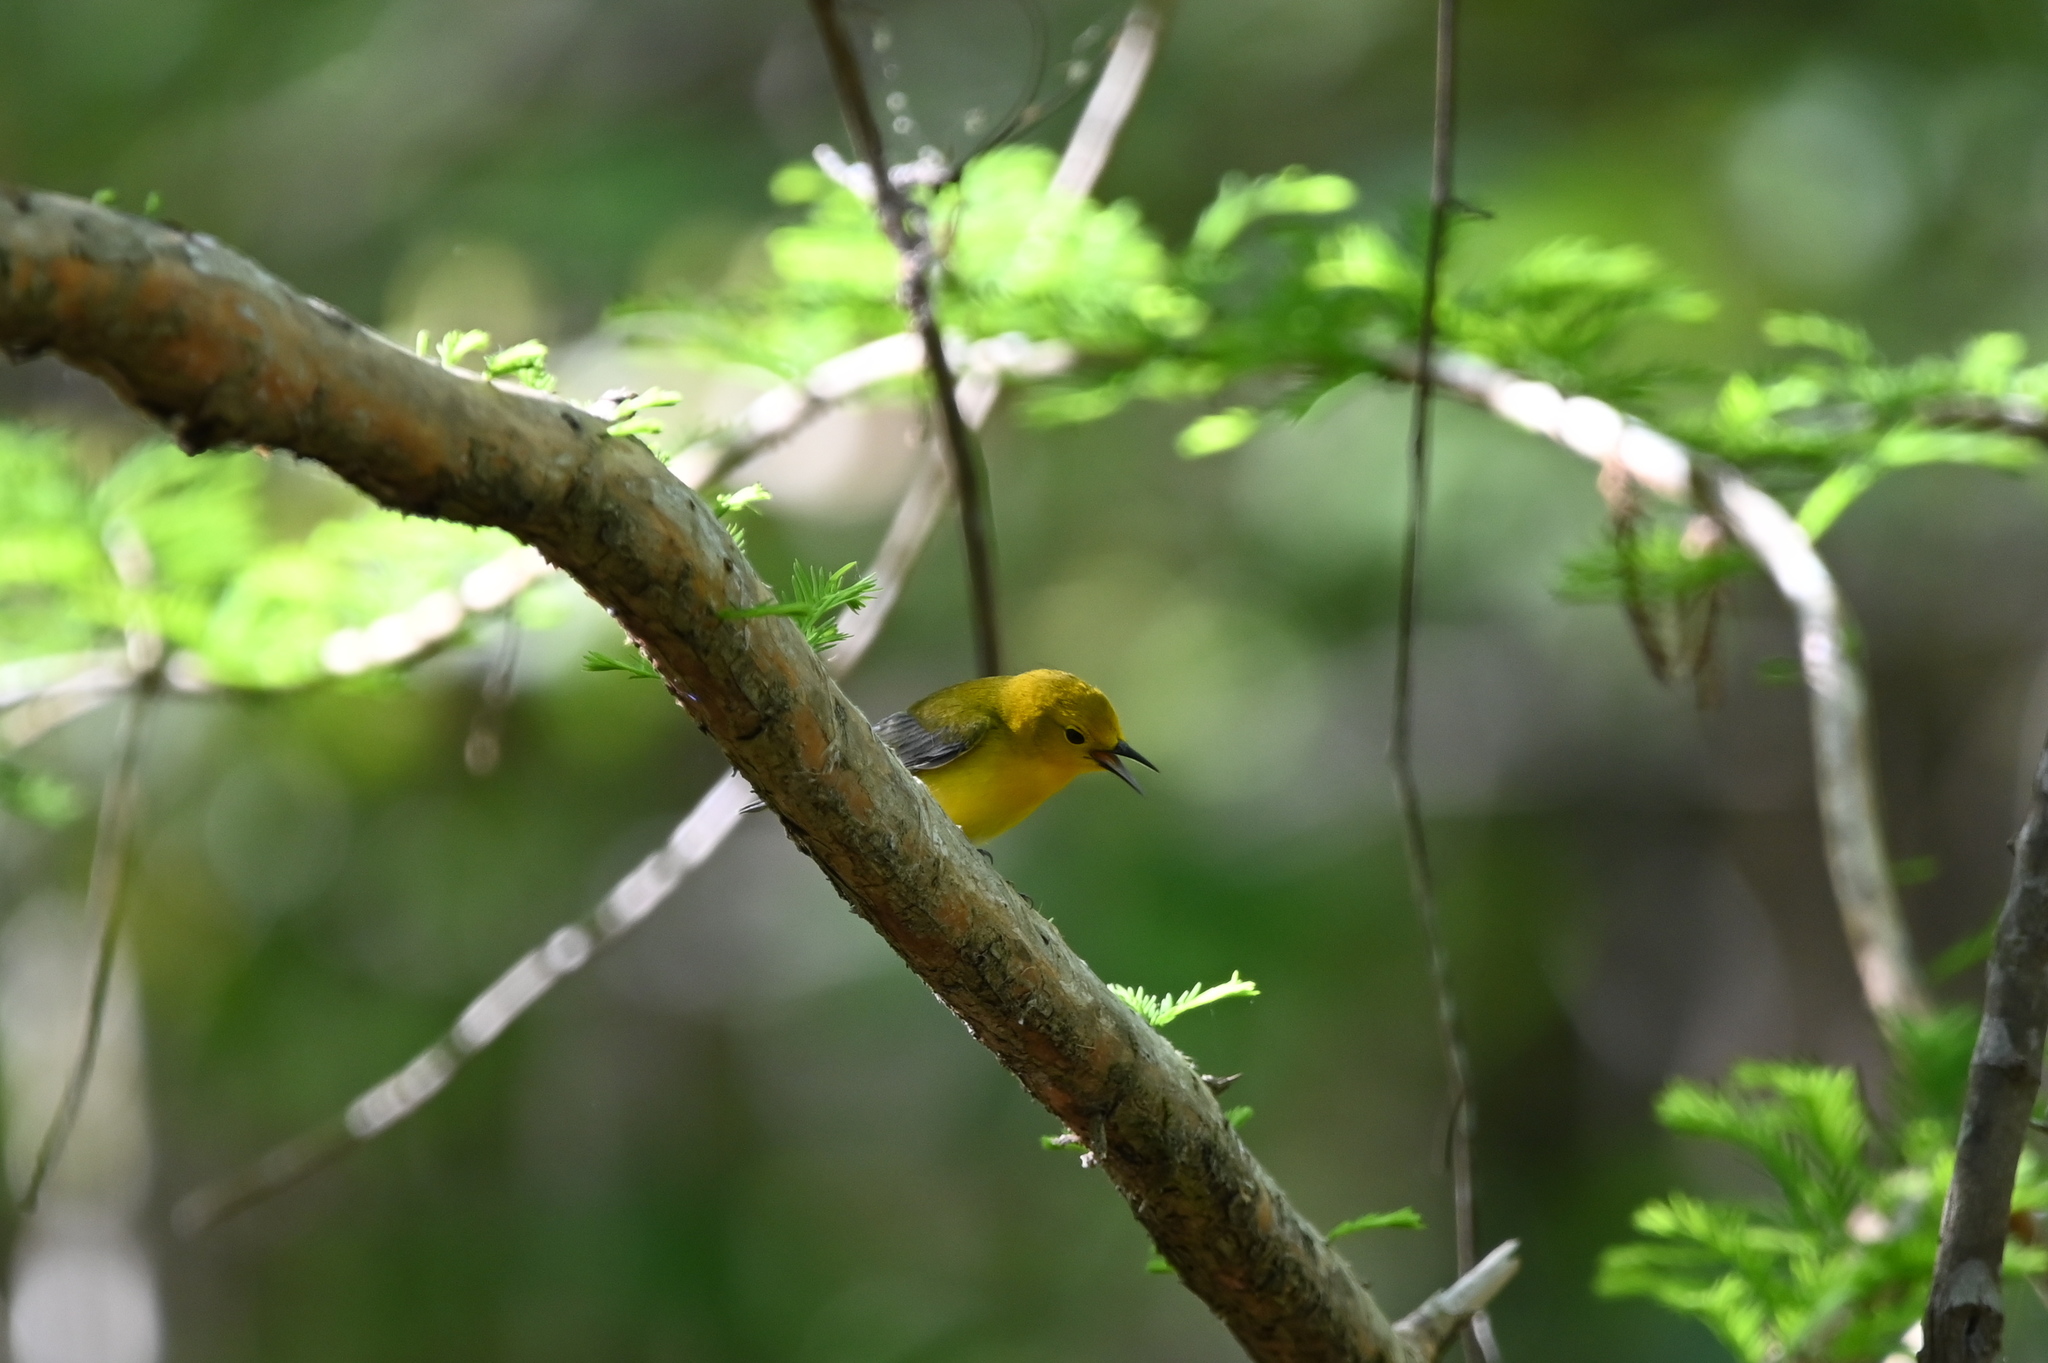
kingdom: Animalia
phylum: Chordata
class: Aves
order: Passeriformes
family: Parulidae
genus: Protonotaria
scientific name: Protonotaria citrea
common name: Prothonotary warbler
